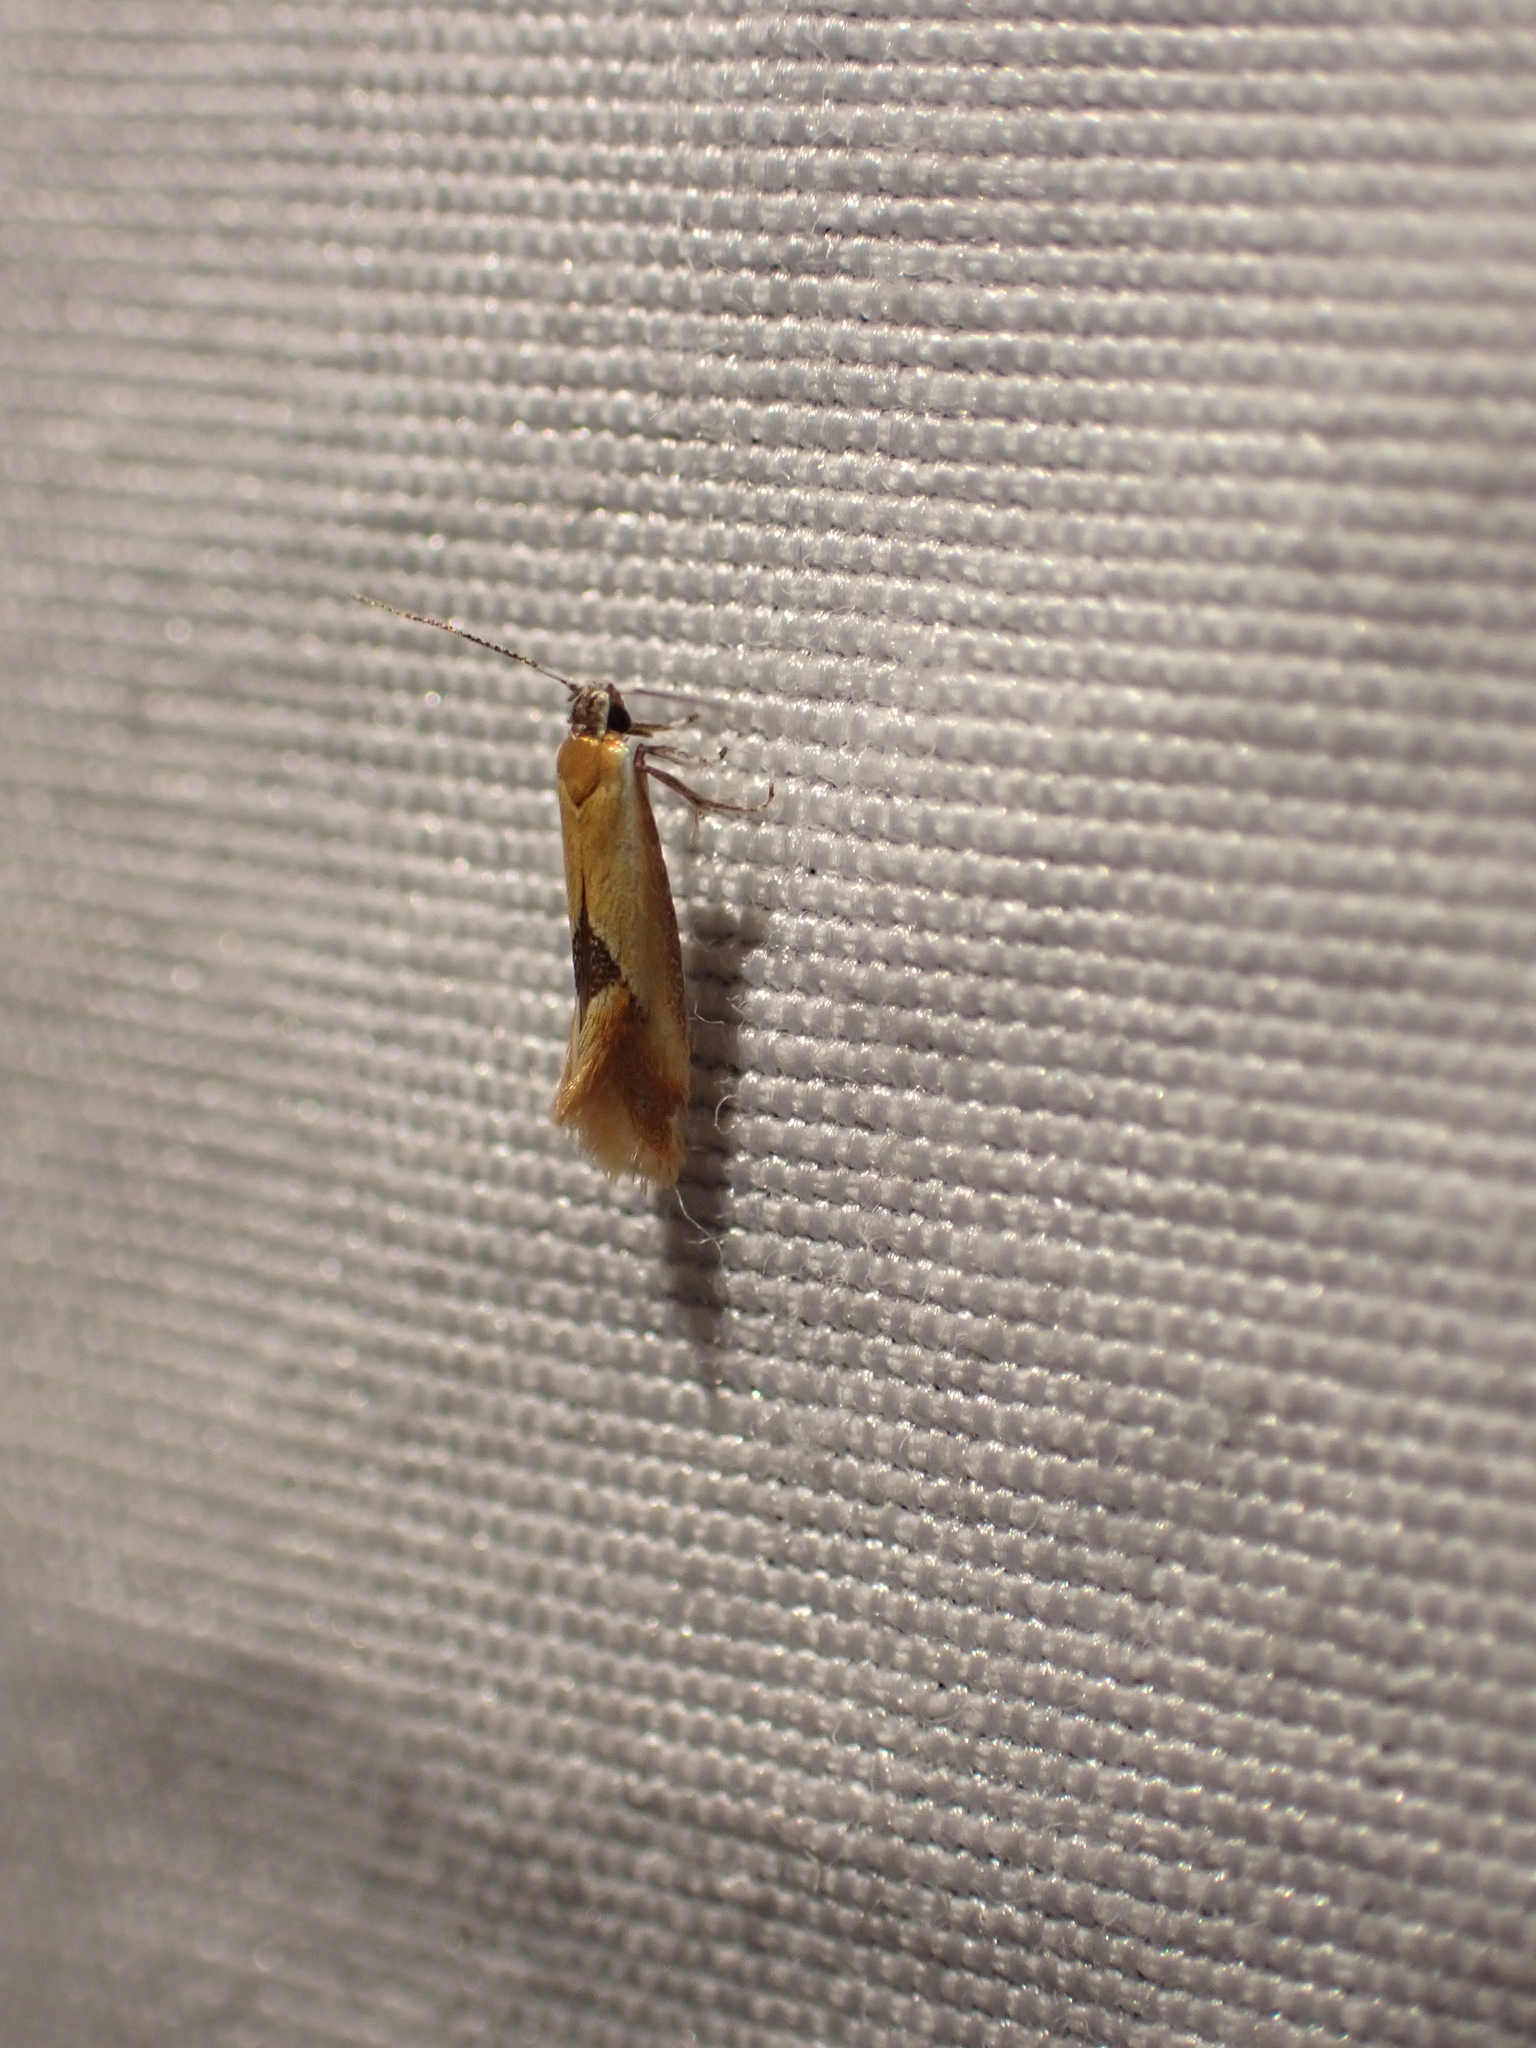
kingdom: Animalia
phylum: Arthropoda
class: Insecta
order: Lepidoptera
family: Oecophoridae
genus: Batia
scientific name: Batia lunaris
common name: Moth
